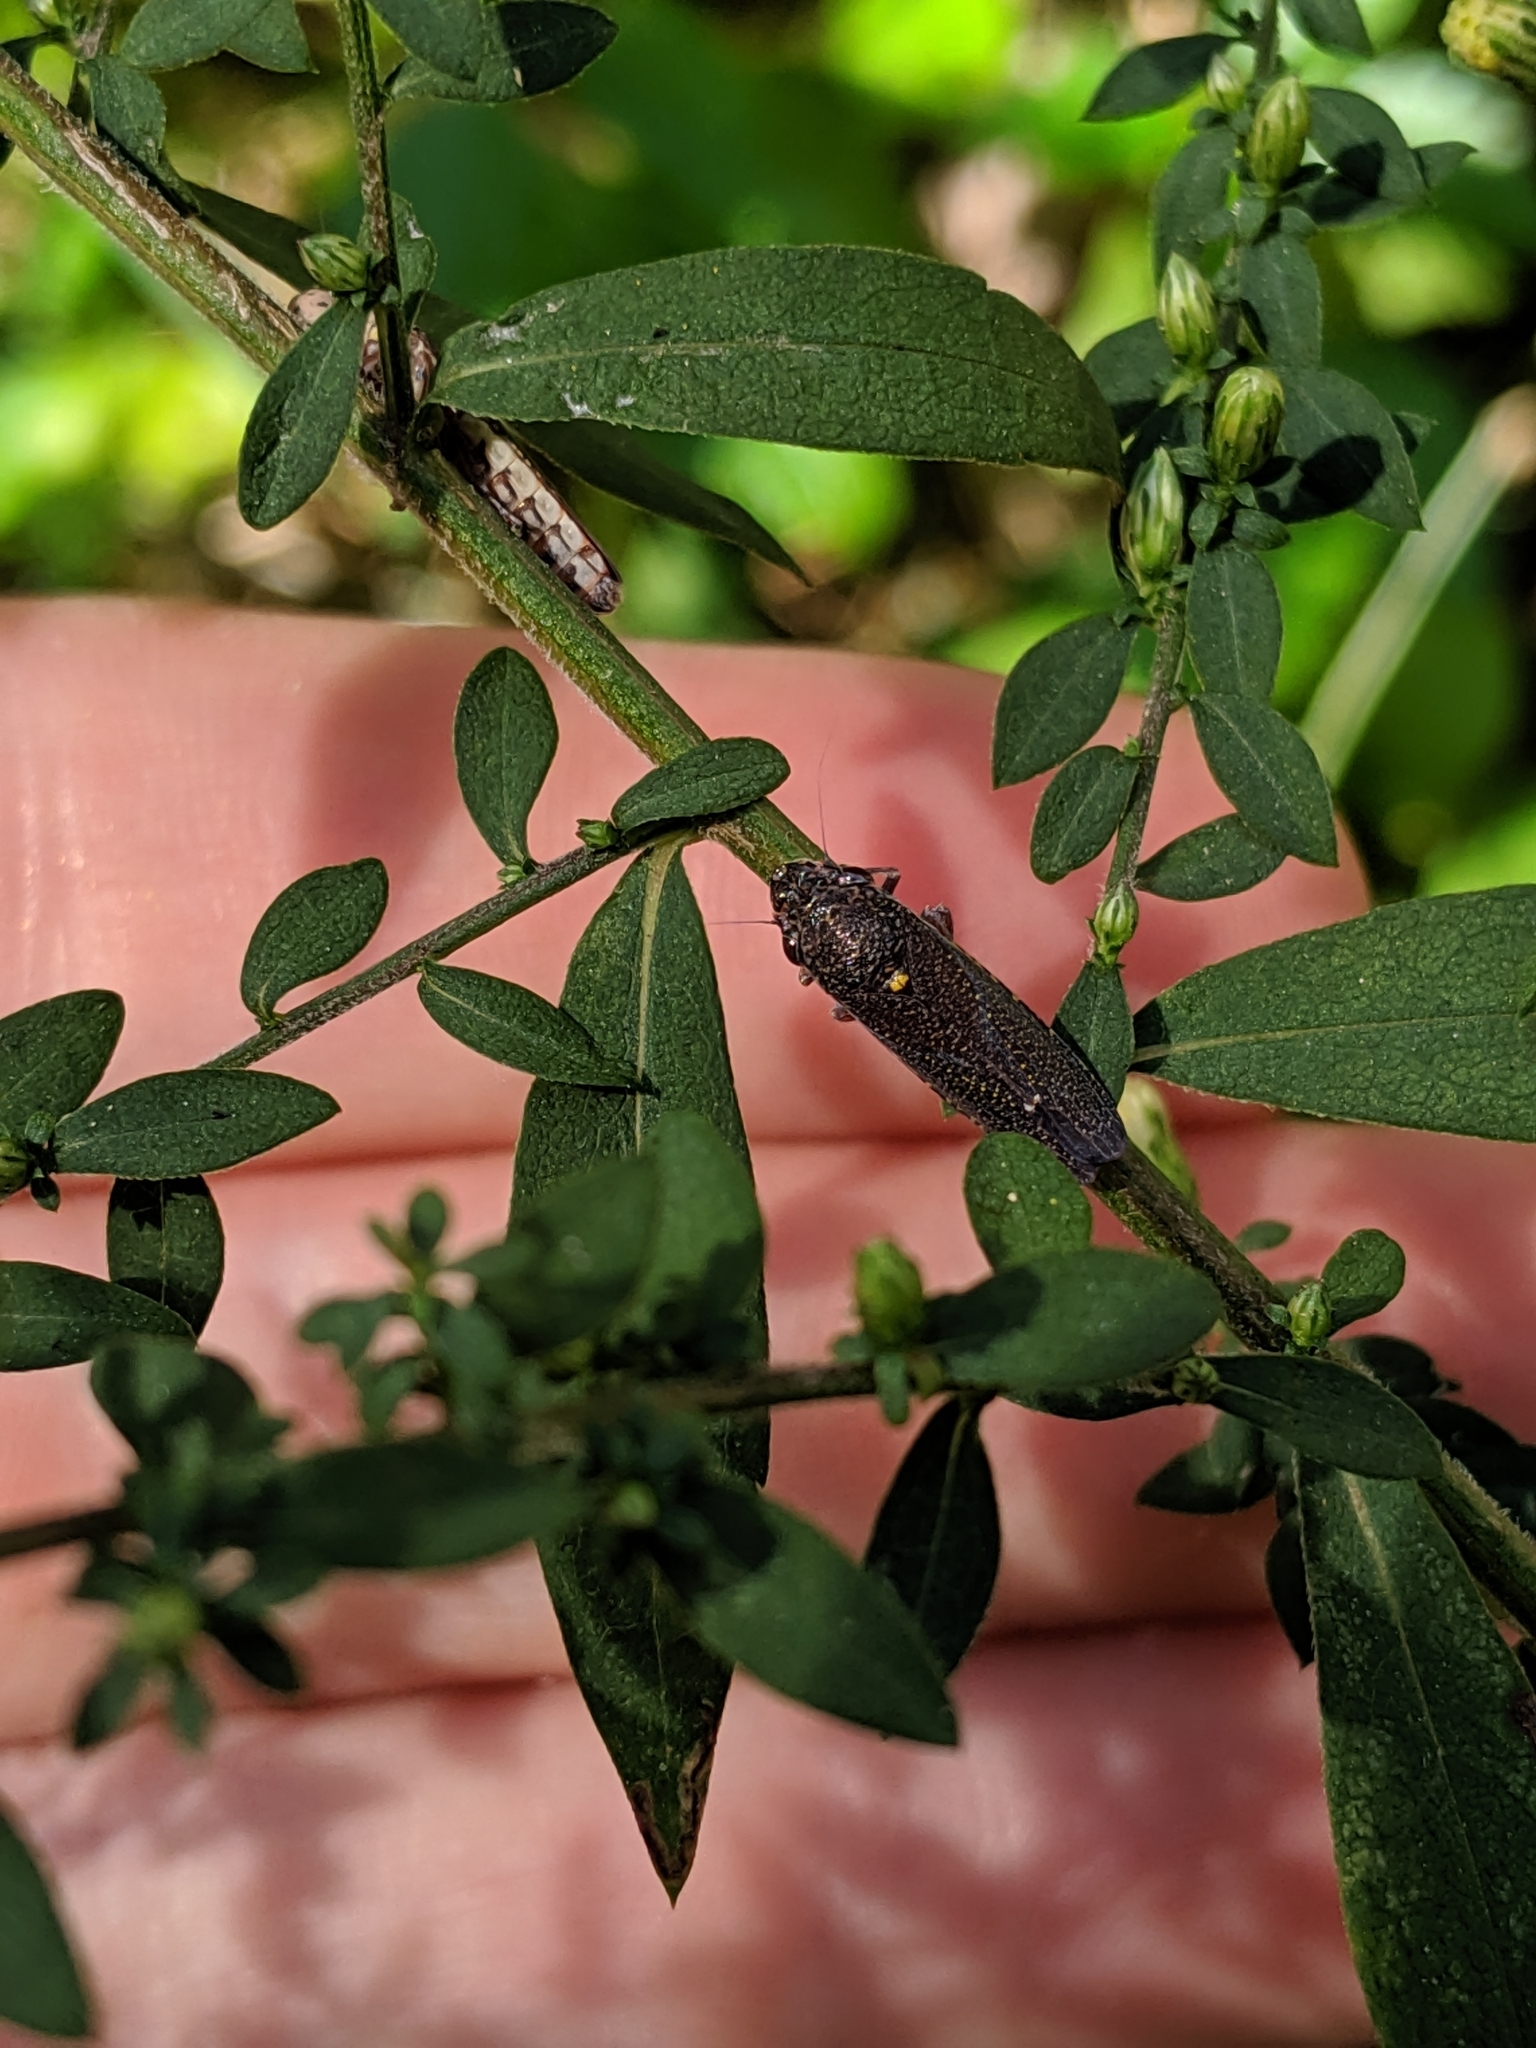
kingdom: Animalia
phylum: Arthropoda
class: Insecta
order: Hemiptera
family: Cicadellidae
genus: Paraulacizes
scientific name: Paraulacizes irrorata
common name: Speckled sharpshooter
